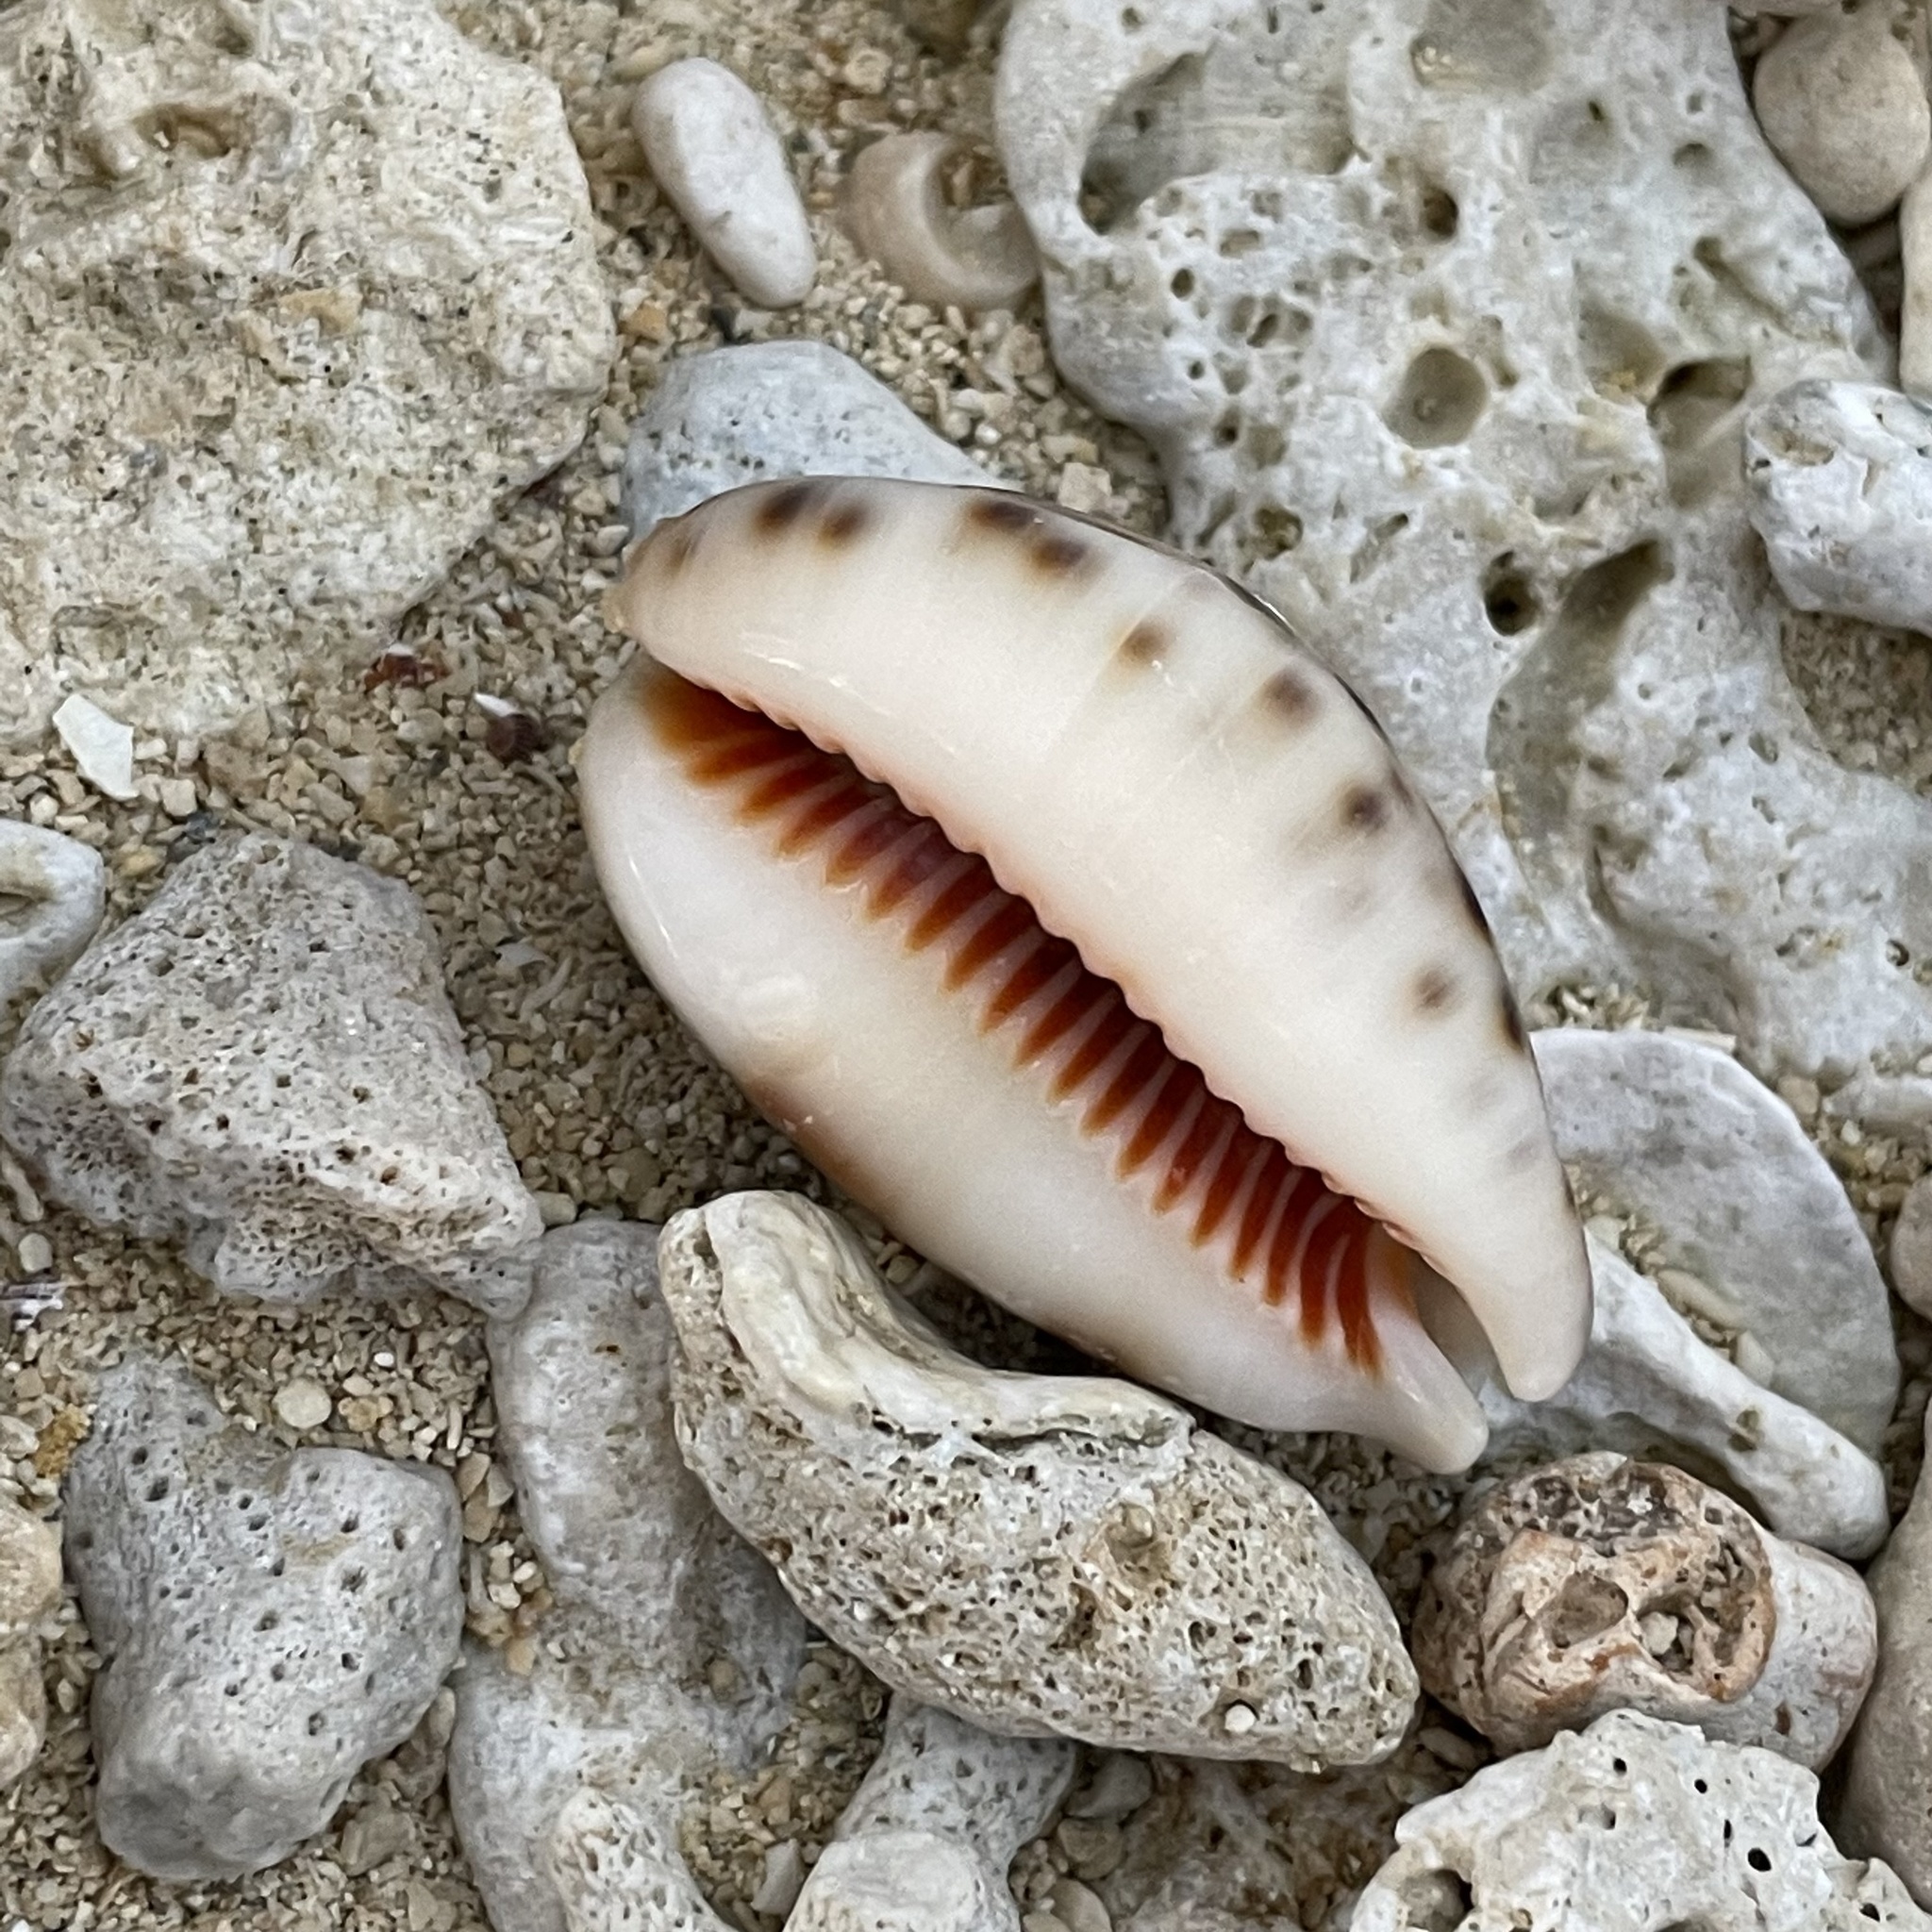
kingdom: Animalia
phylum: Mollusca
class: Gastropoda
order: Littorinimorpha
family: Cypraeidae
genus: Lyncina
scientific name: Lyncina lynx
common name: Bobcat cowrie
